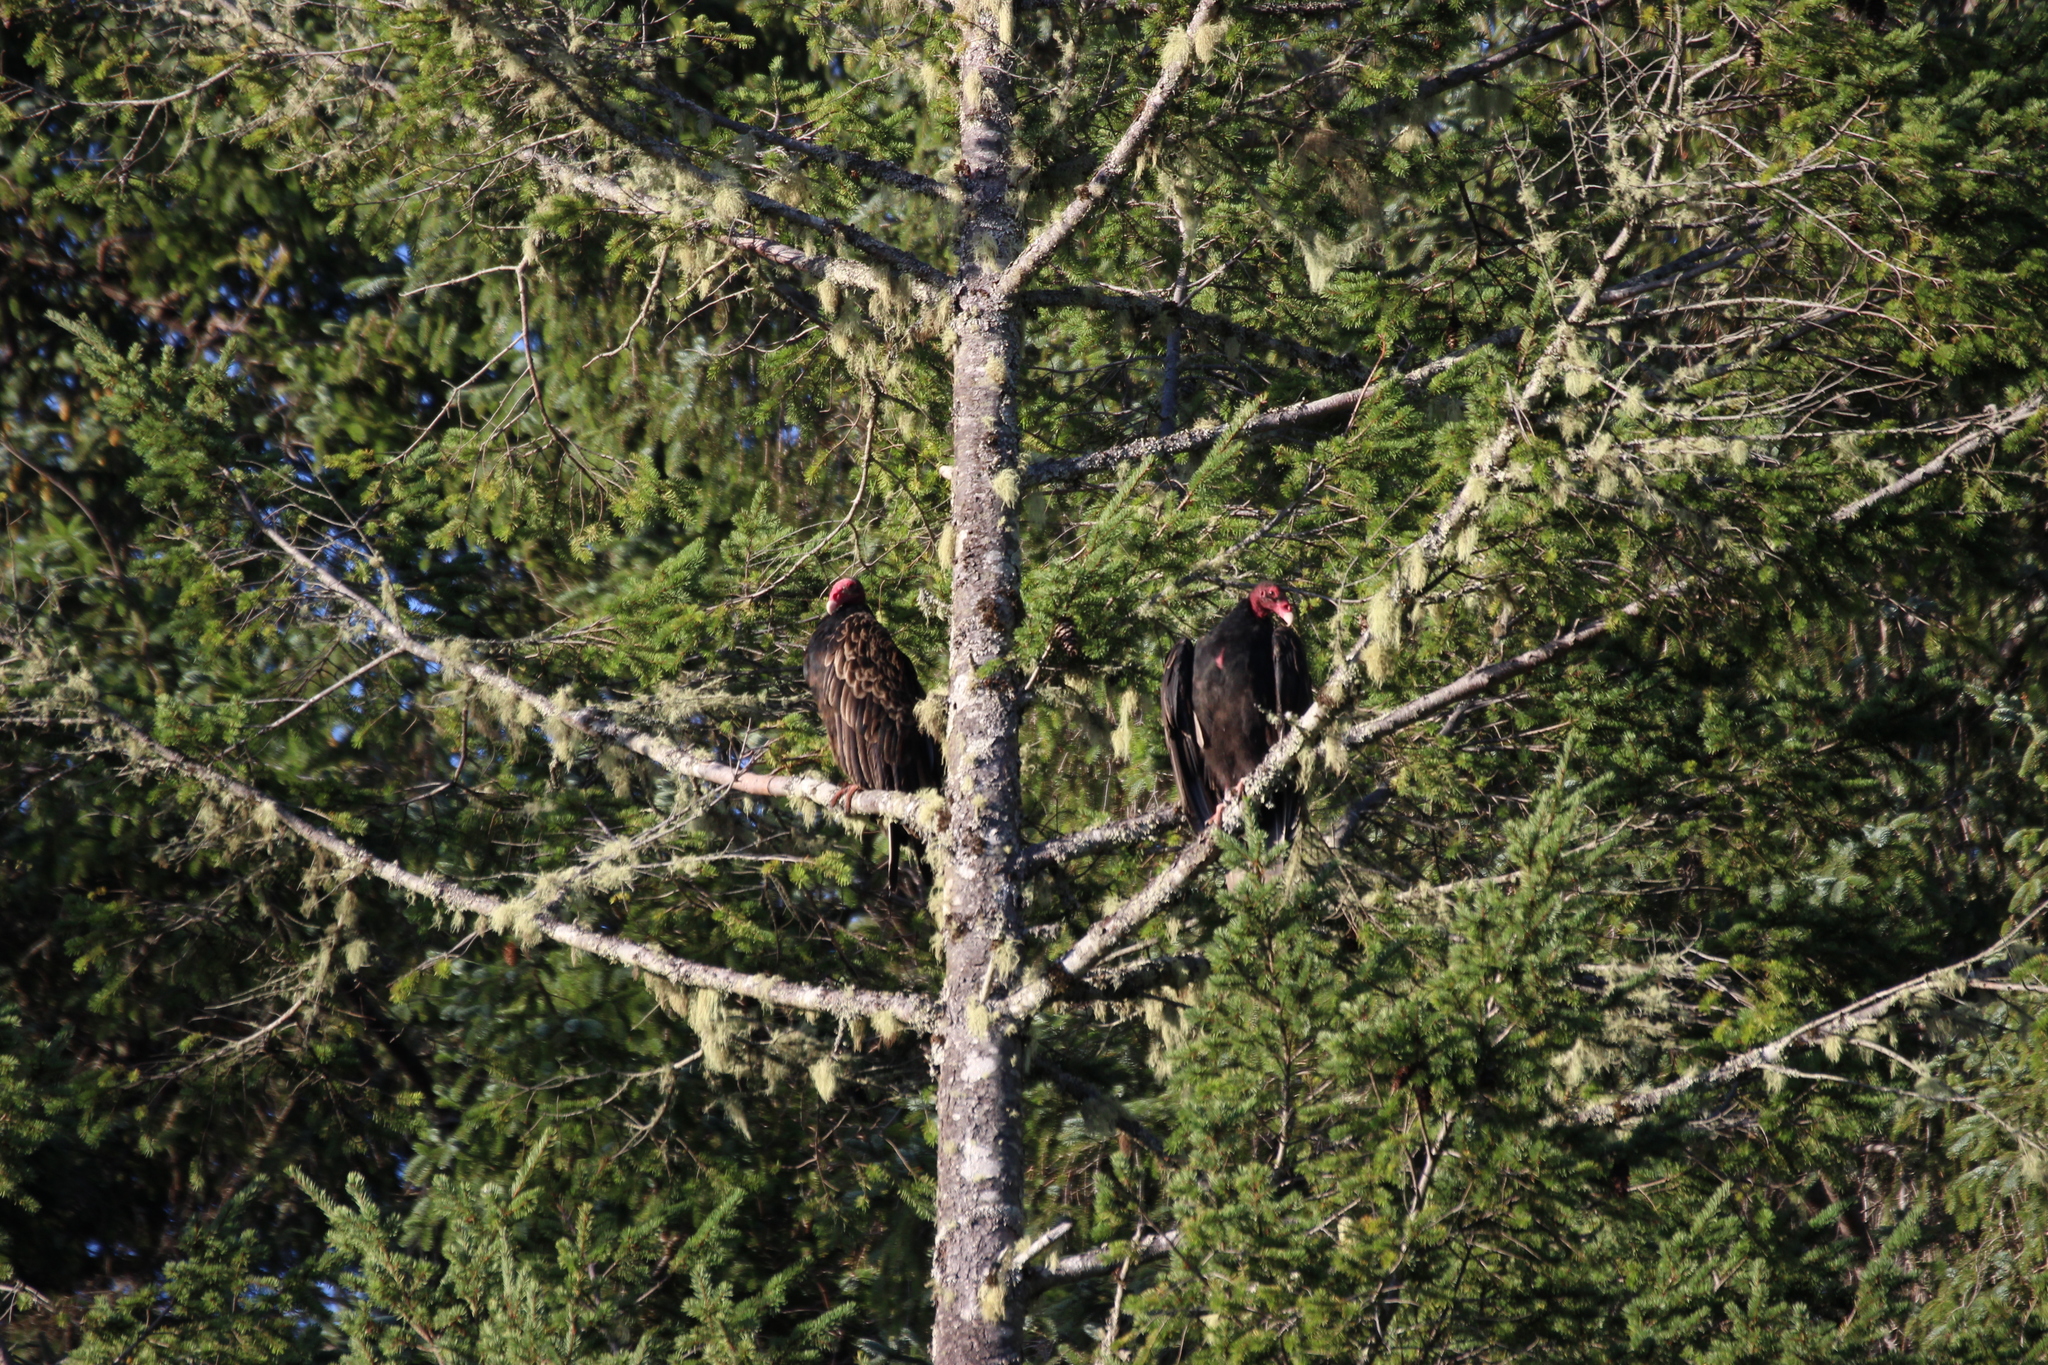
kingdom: Animalia
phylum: Chordata
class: Aves
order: Accipitriformes
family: Cathartidae
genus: Cathartes
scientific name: Cathartes aura
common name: Turkey vulture
